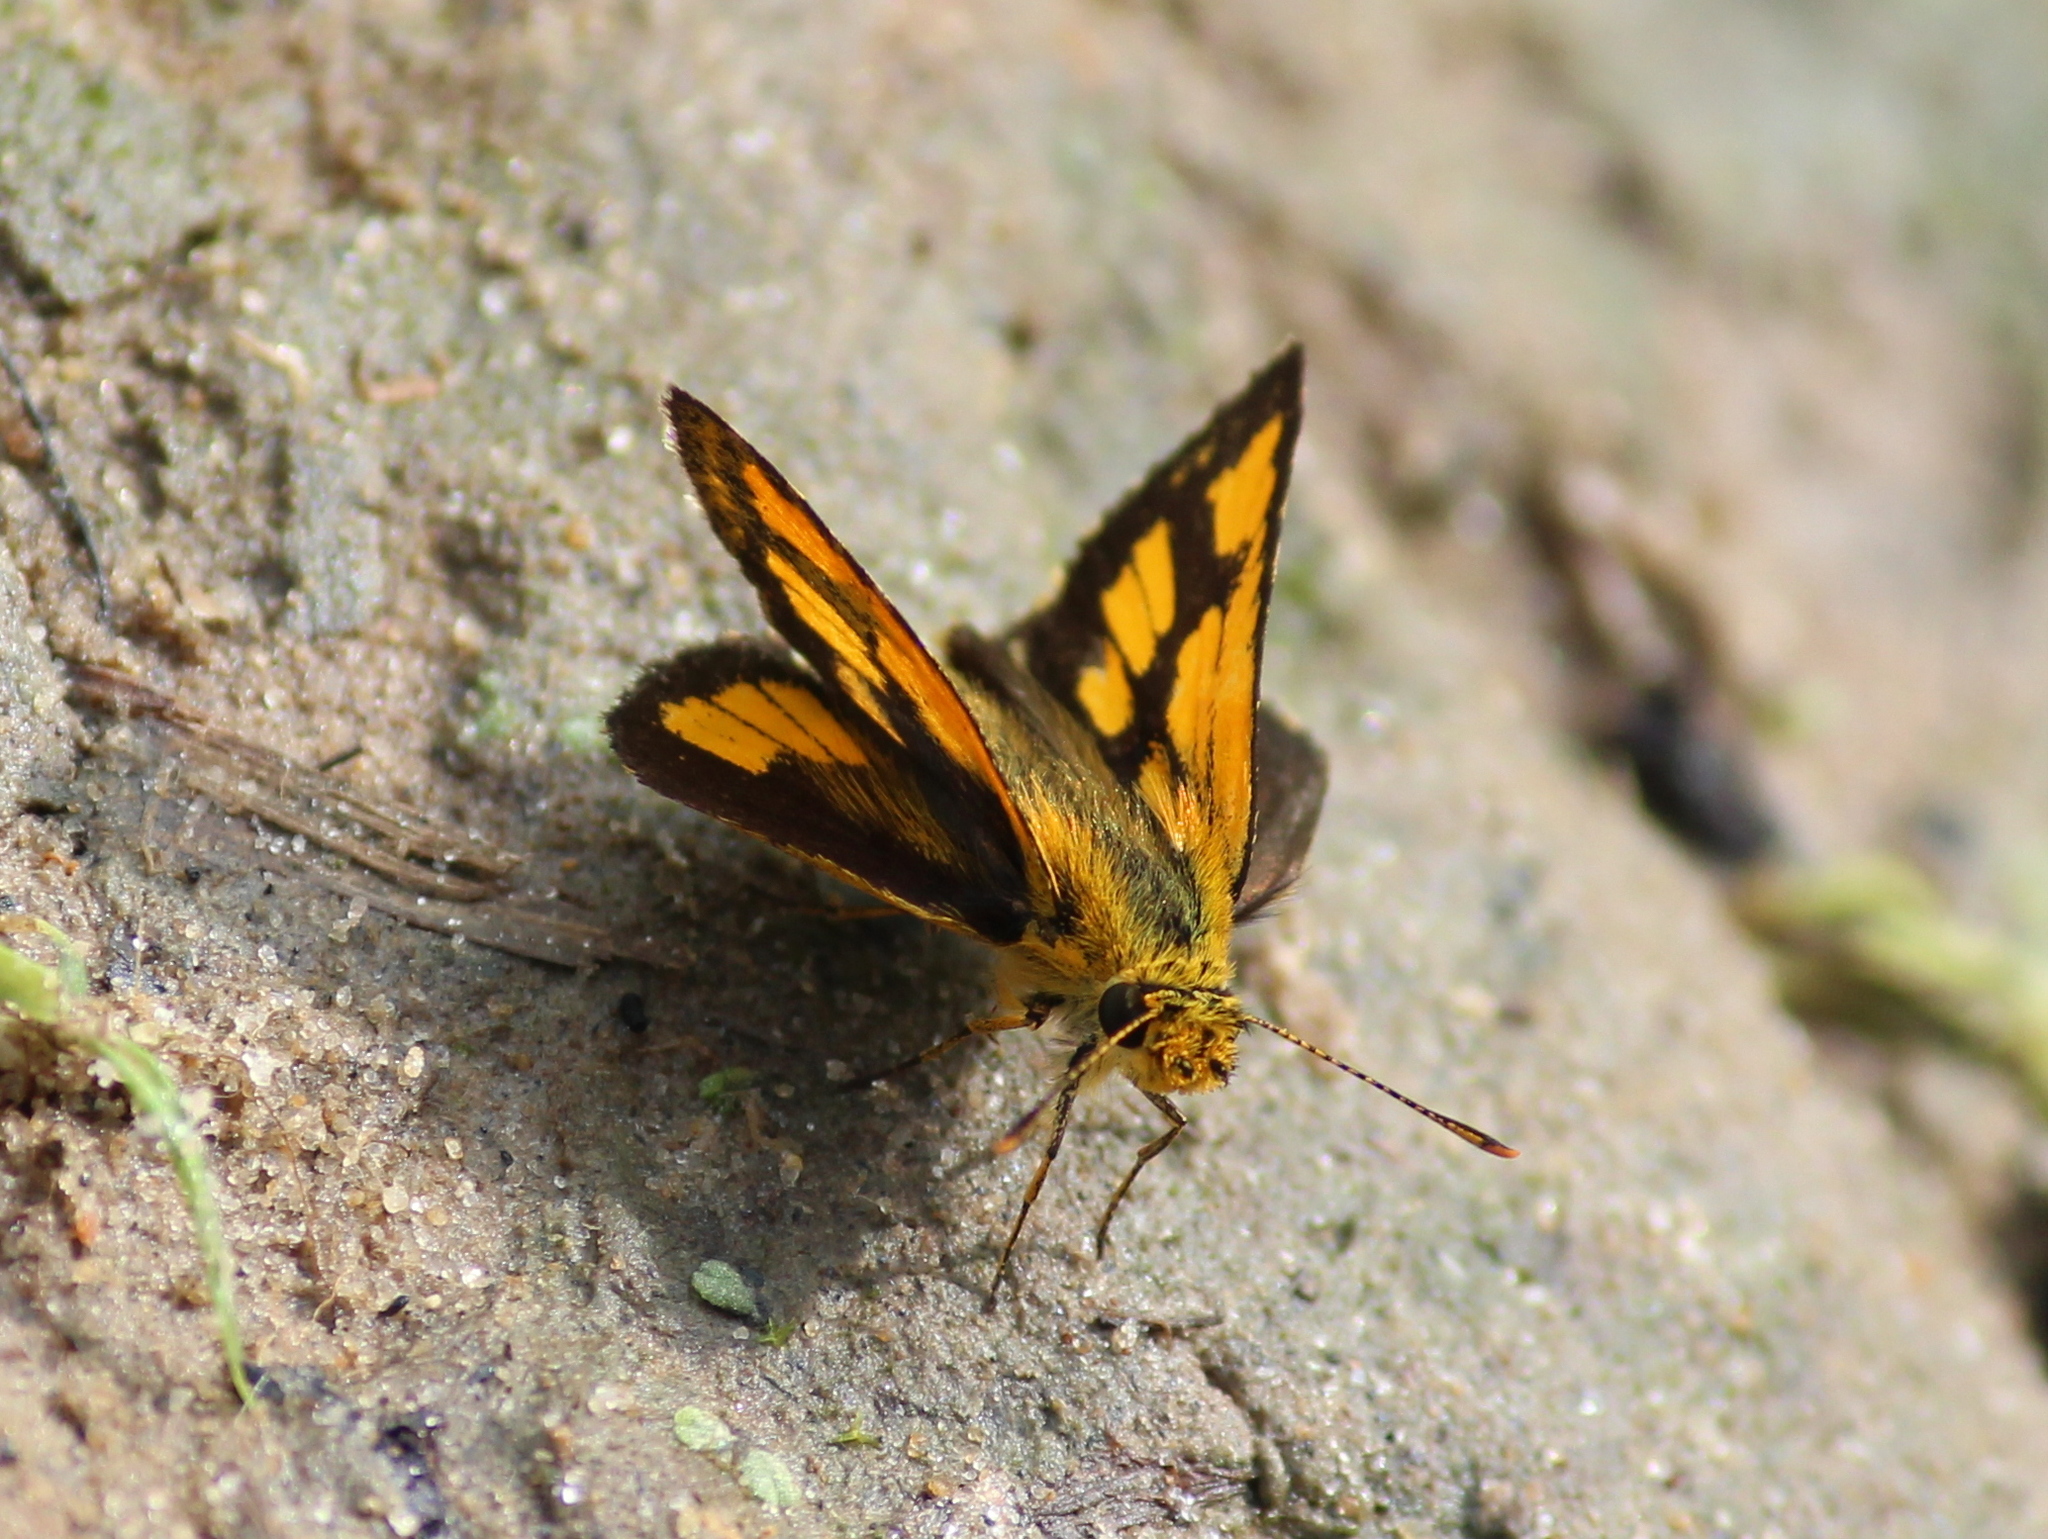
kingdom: Animalia
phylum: Arthropoda
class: Insecta
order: Lepidoptera
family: Hesperiidae
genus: Ampittia
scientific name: Ampittia dioscorides
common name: Common bush hopper
